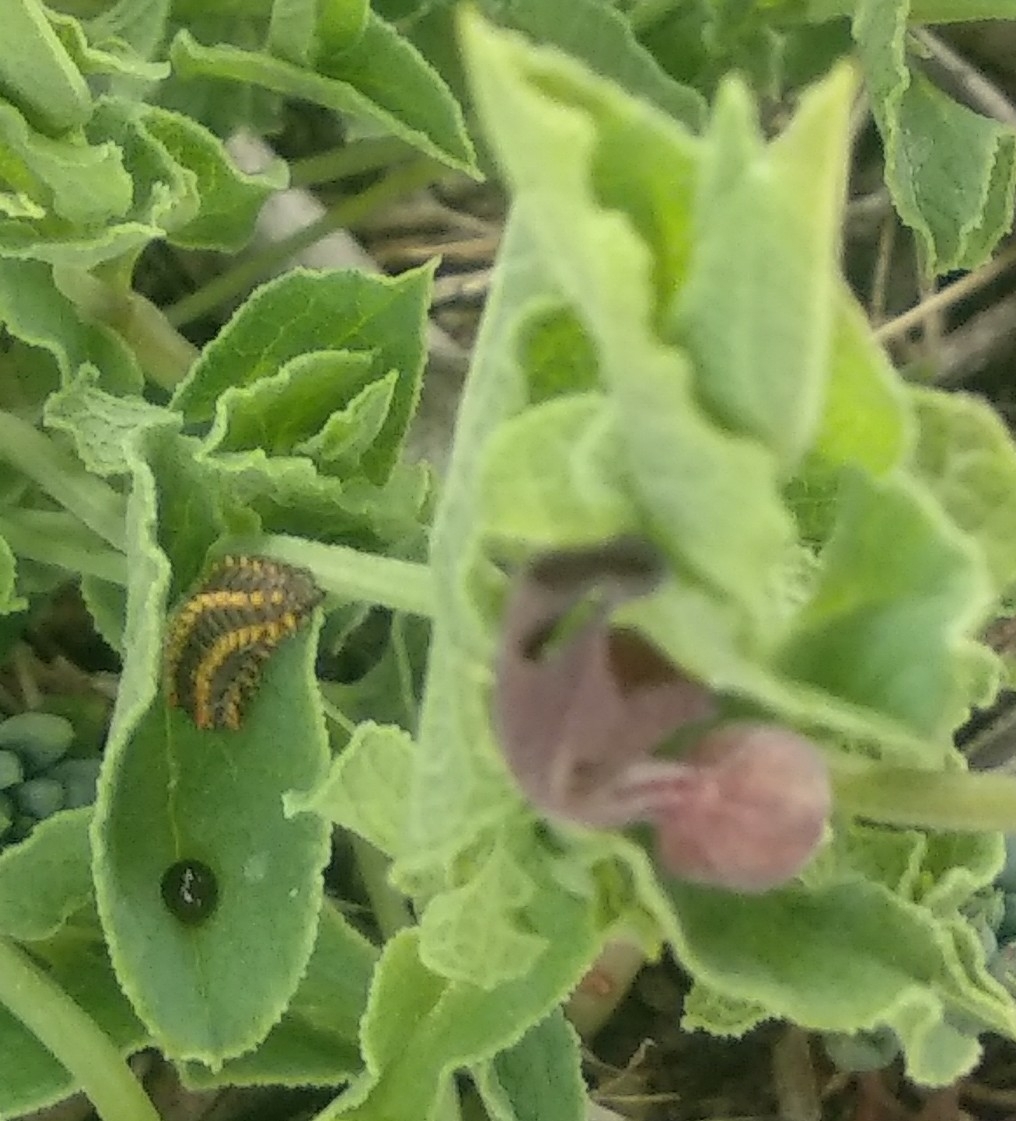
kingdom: Animalia
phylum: Arthropoda
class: Insecta
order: Lepidoptera
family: Papilionidae
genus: Zerynthia
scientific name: Zerynthia rumina
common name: Spanish festoon
